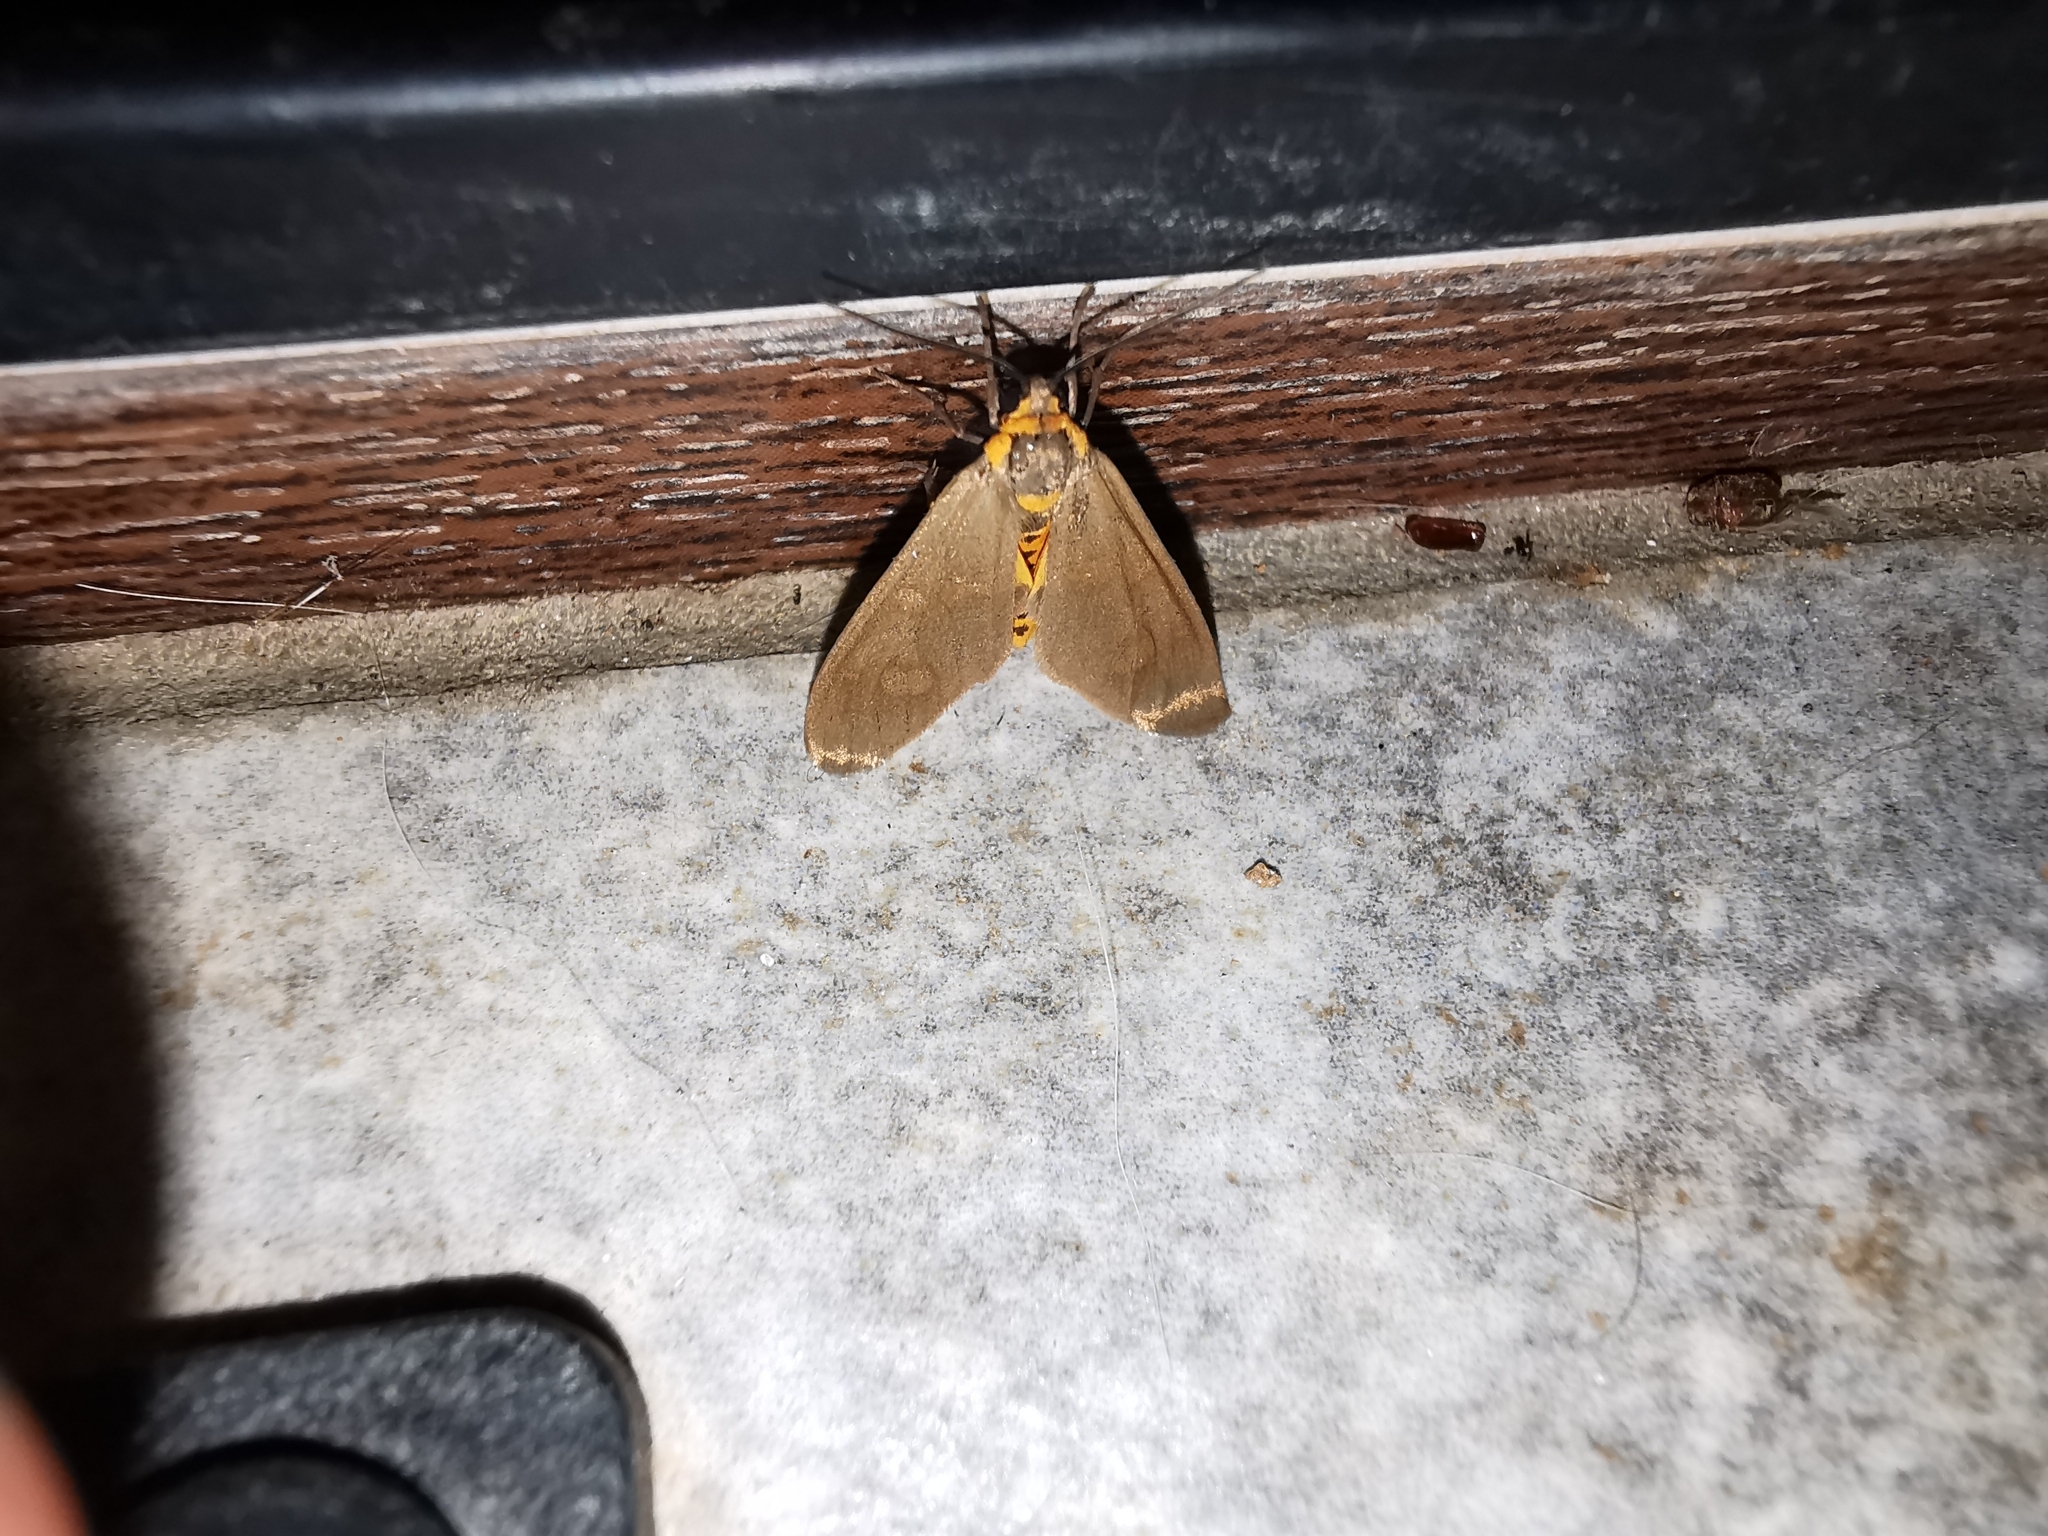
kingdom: Animalia
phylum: Arthropoda
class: Insecta
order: Lepidoptera
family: Erebidae
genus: Dysauxes
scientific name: Dysauxes punctata
